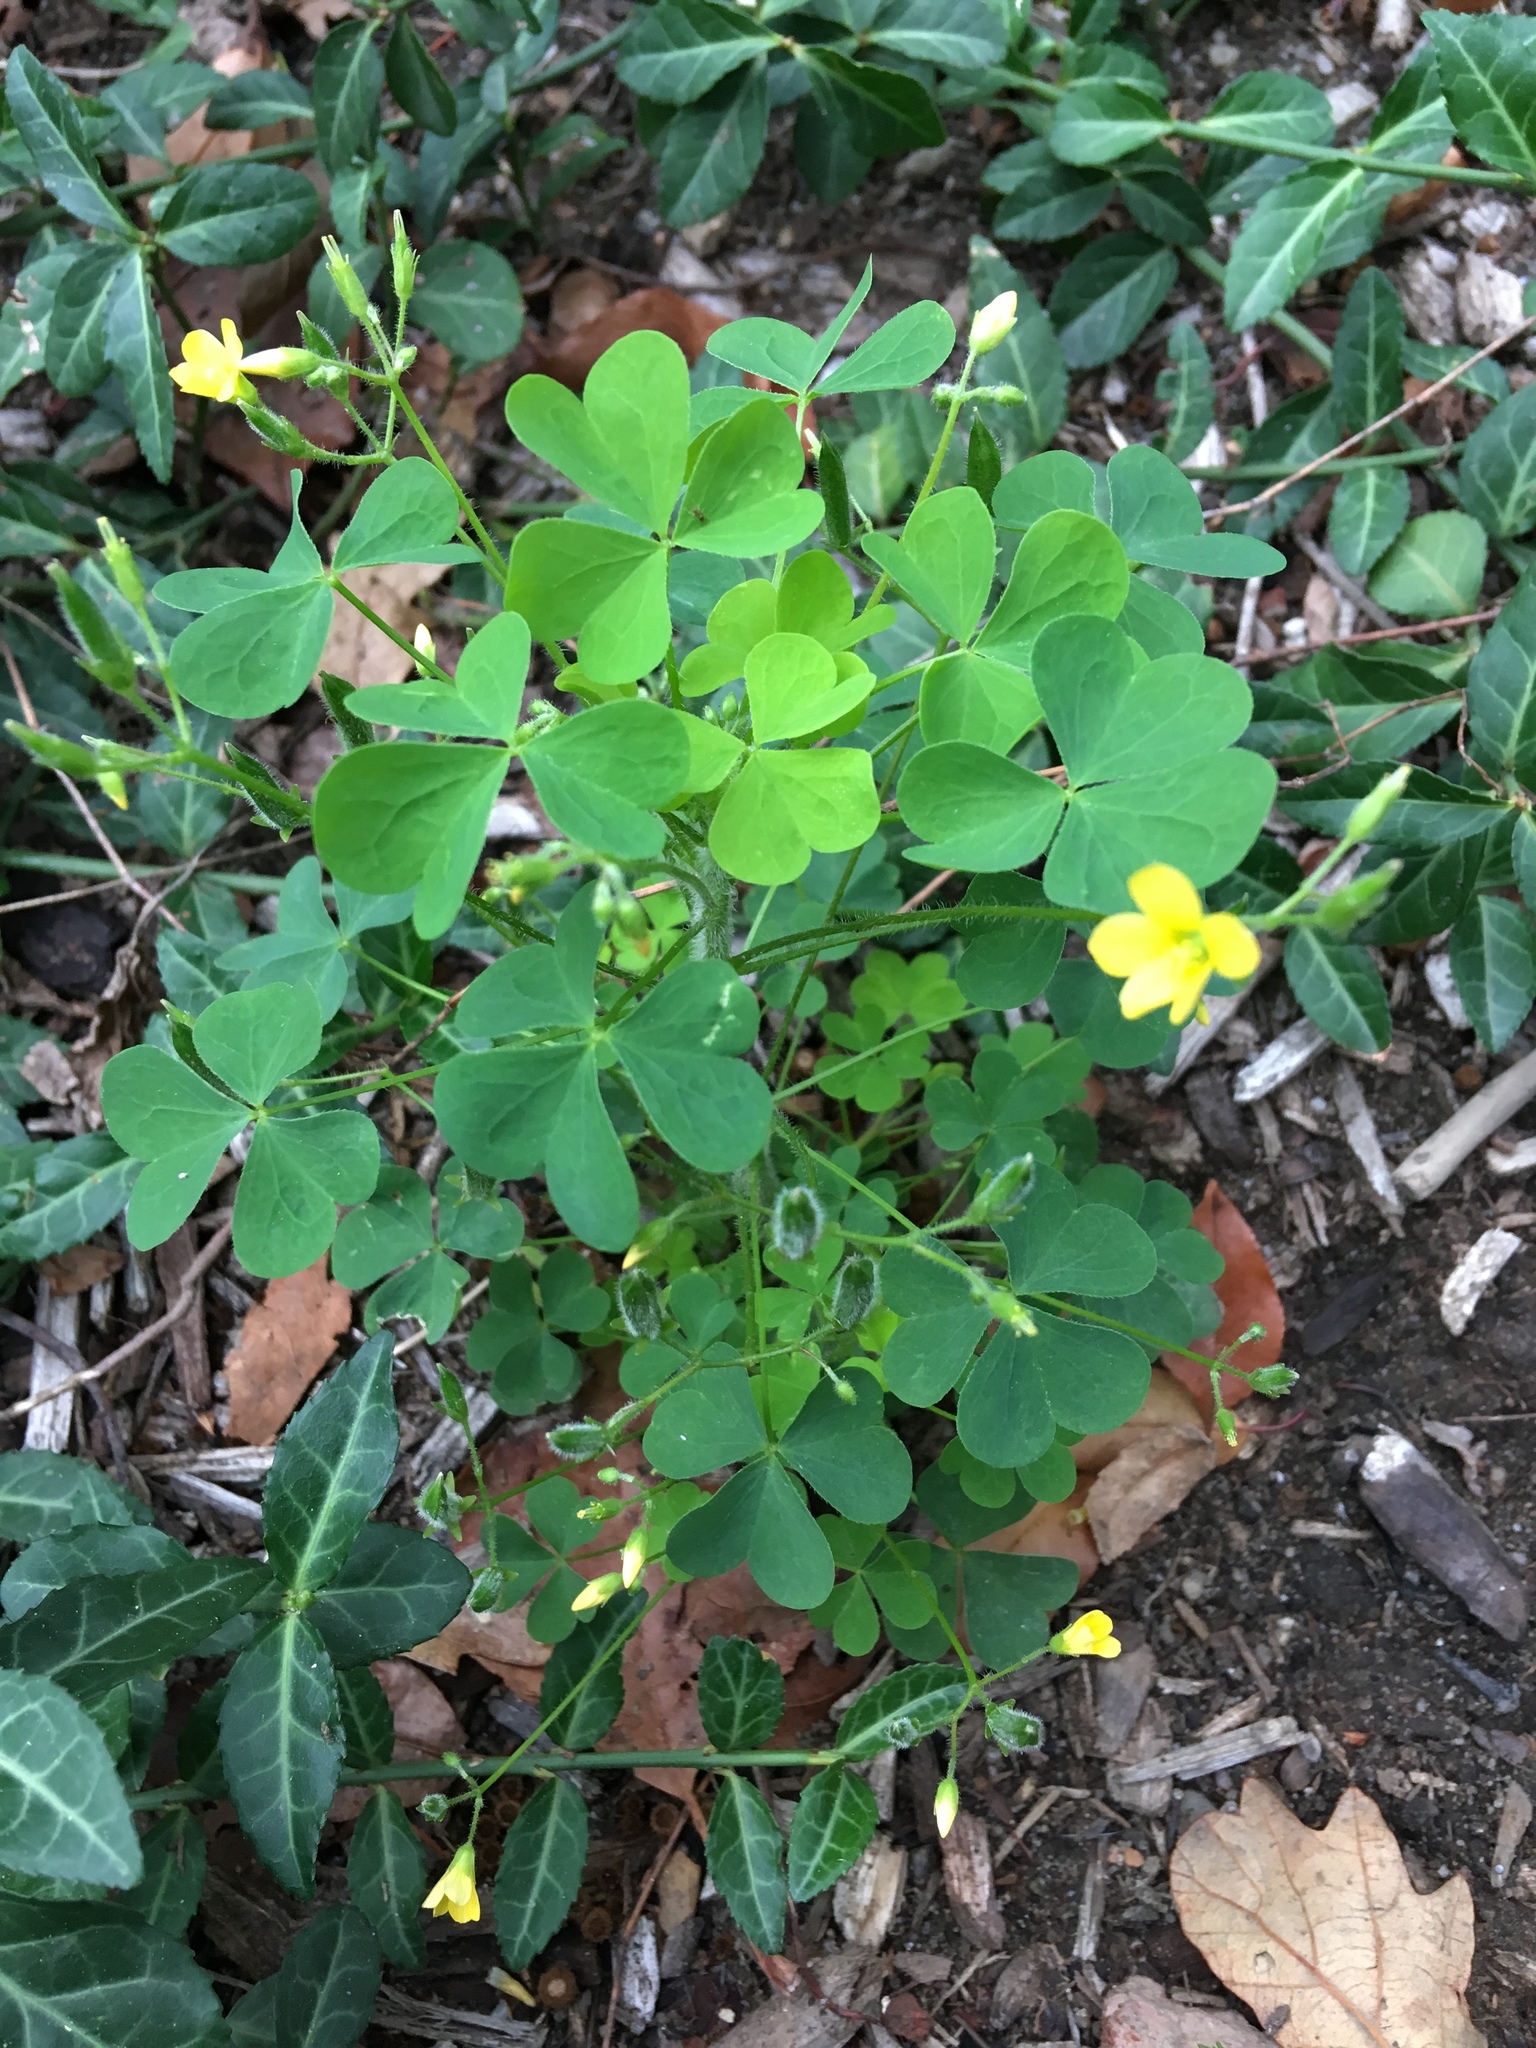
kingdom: Plantae
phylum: Tracheophyta
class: Magnoliopsida
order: Oxalidales
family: Oxalidaceae
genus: Oxalis
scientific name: Oxalis stricta
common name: Upright yellow-sorrel
